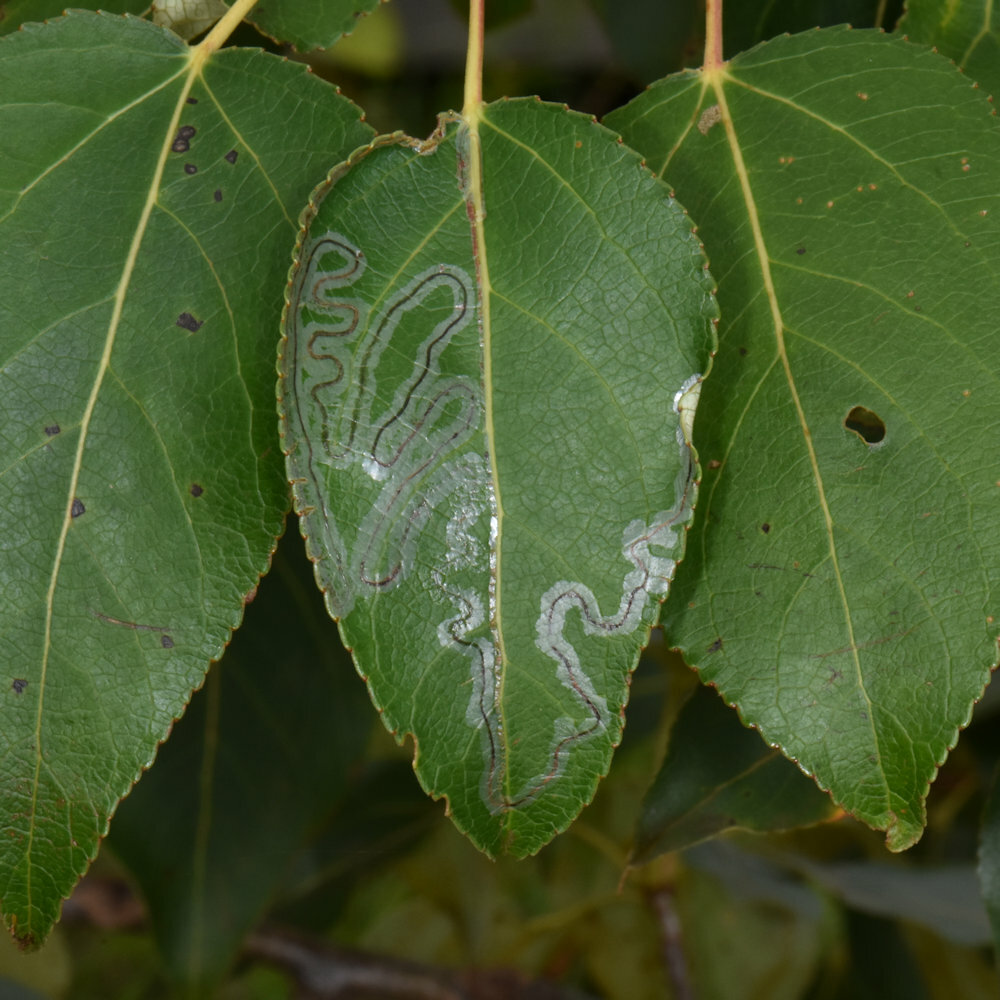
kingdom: Animalia
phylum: Arthropoda
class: Insecta
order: Lepidoptera
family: Gracillariidae
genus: Phyllocnistis
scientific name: Phyllocnistis populiella
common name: Aspen serpentine leafminer moth
